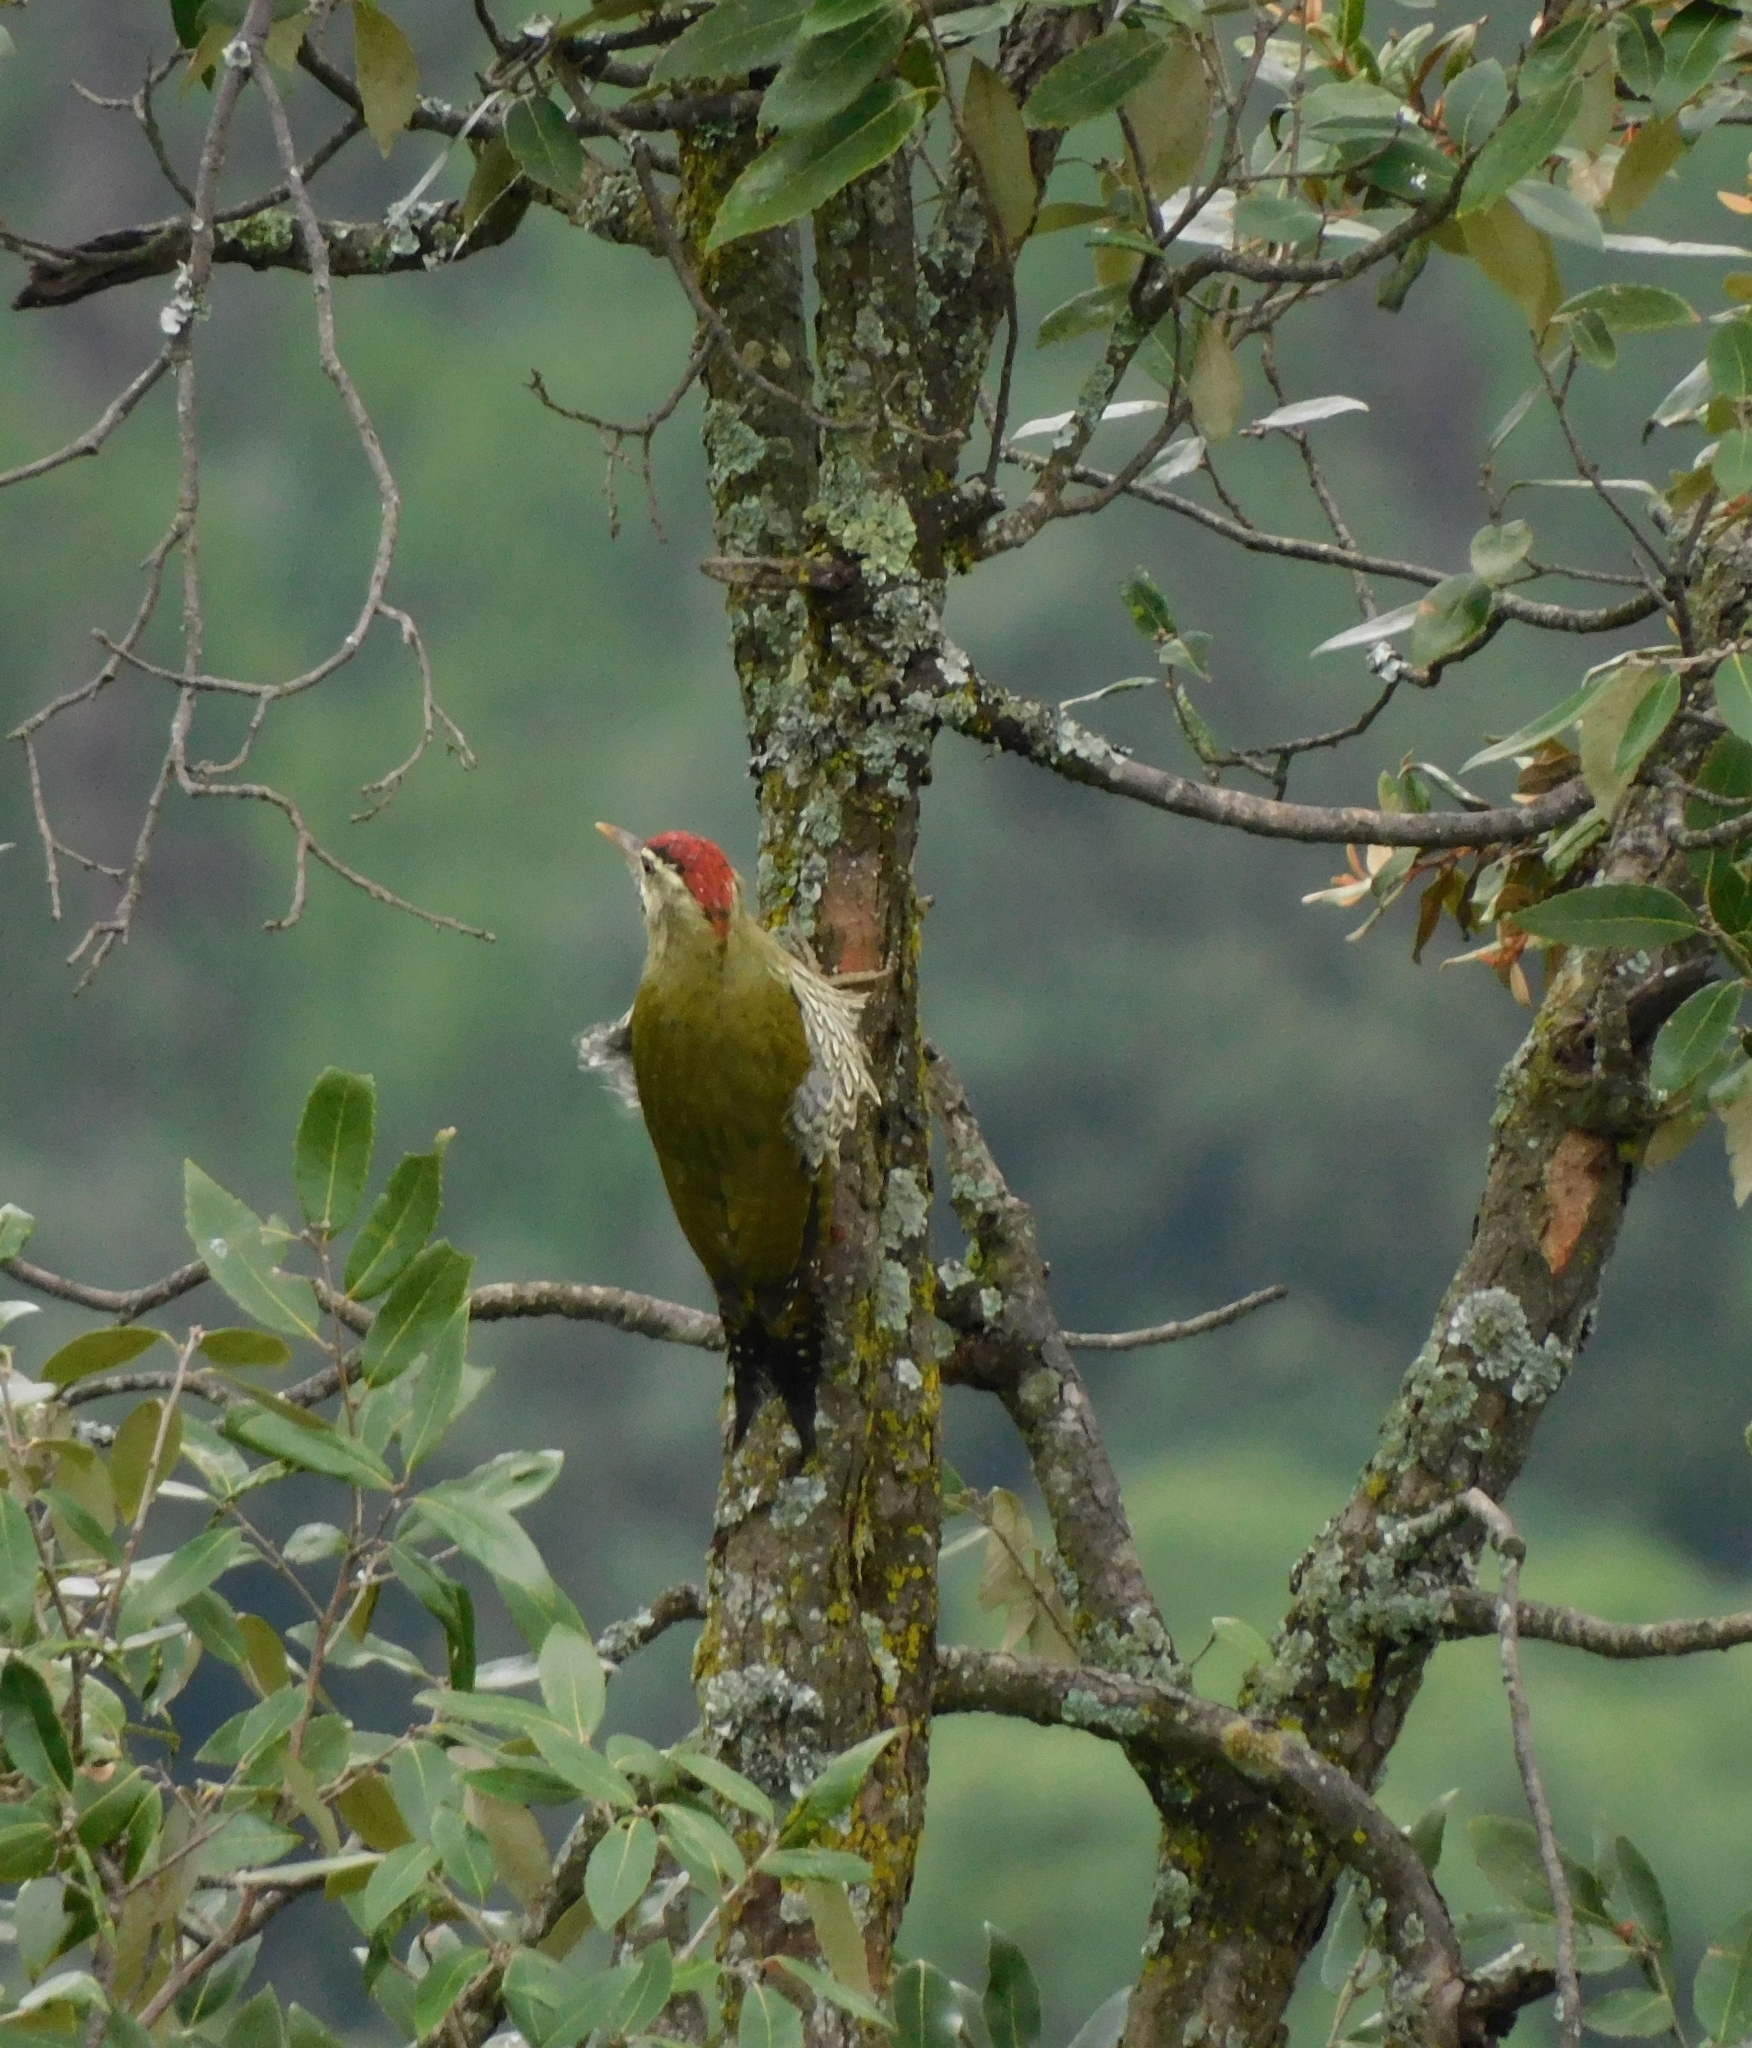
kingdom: Animalia
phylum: Chordata
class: Aves
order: Piciformes
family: Picidae
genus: Picus
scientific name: Picus squamatus
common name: Scaly-bellied woodpecker
